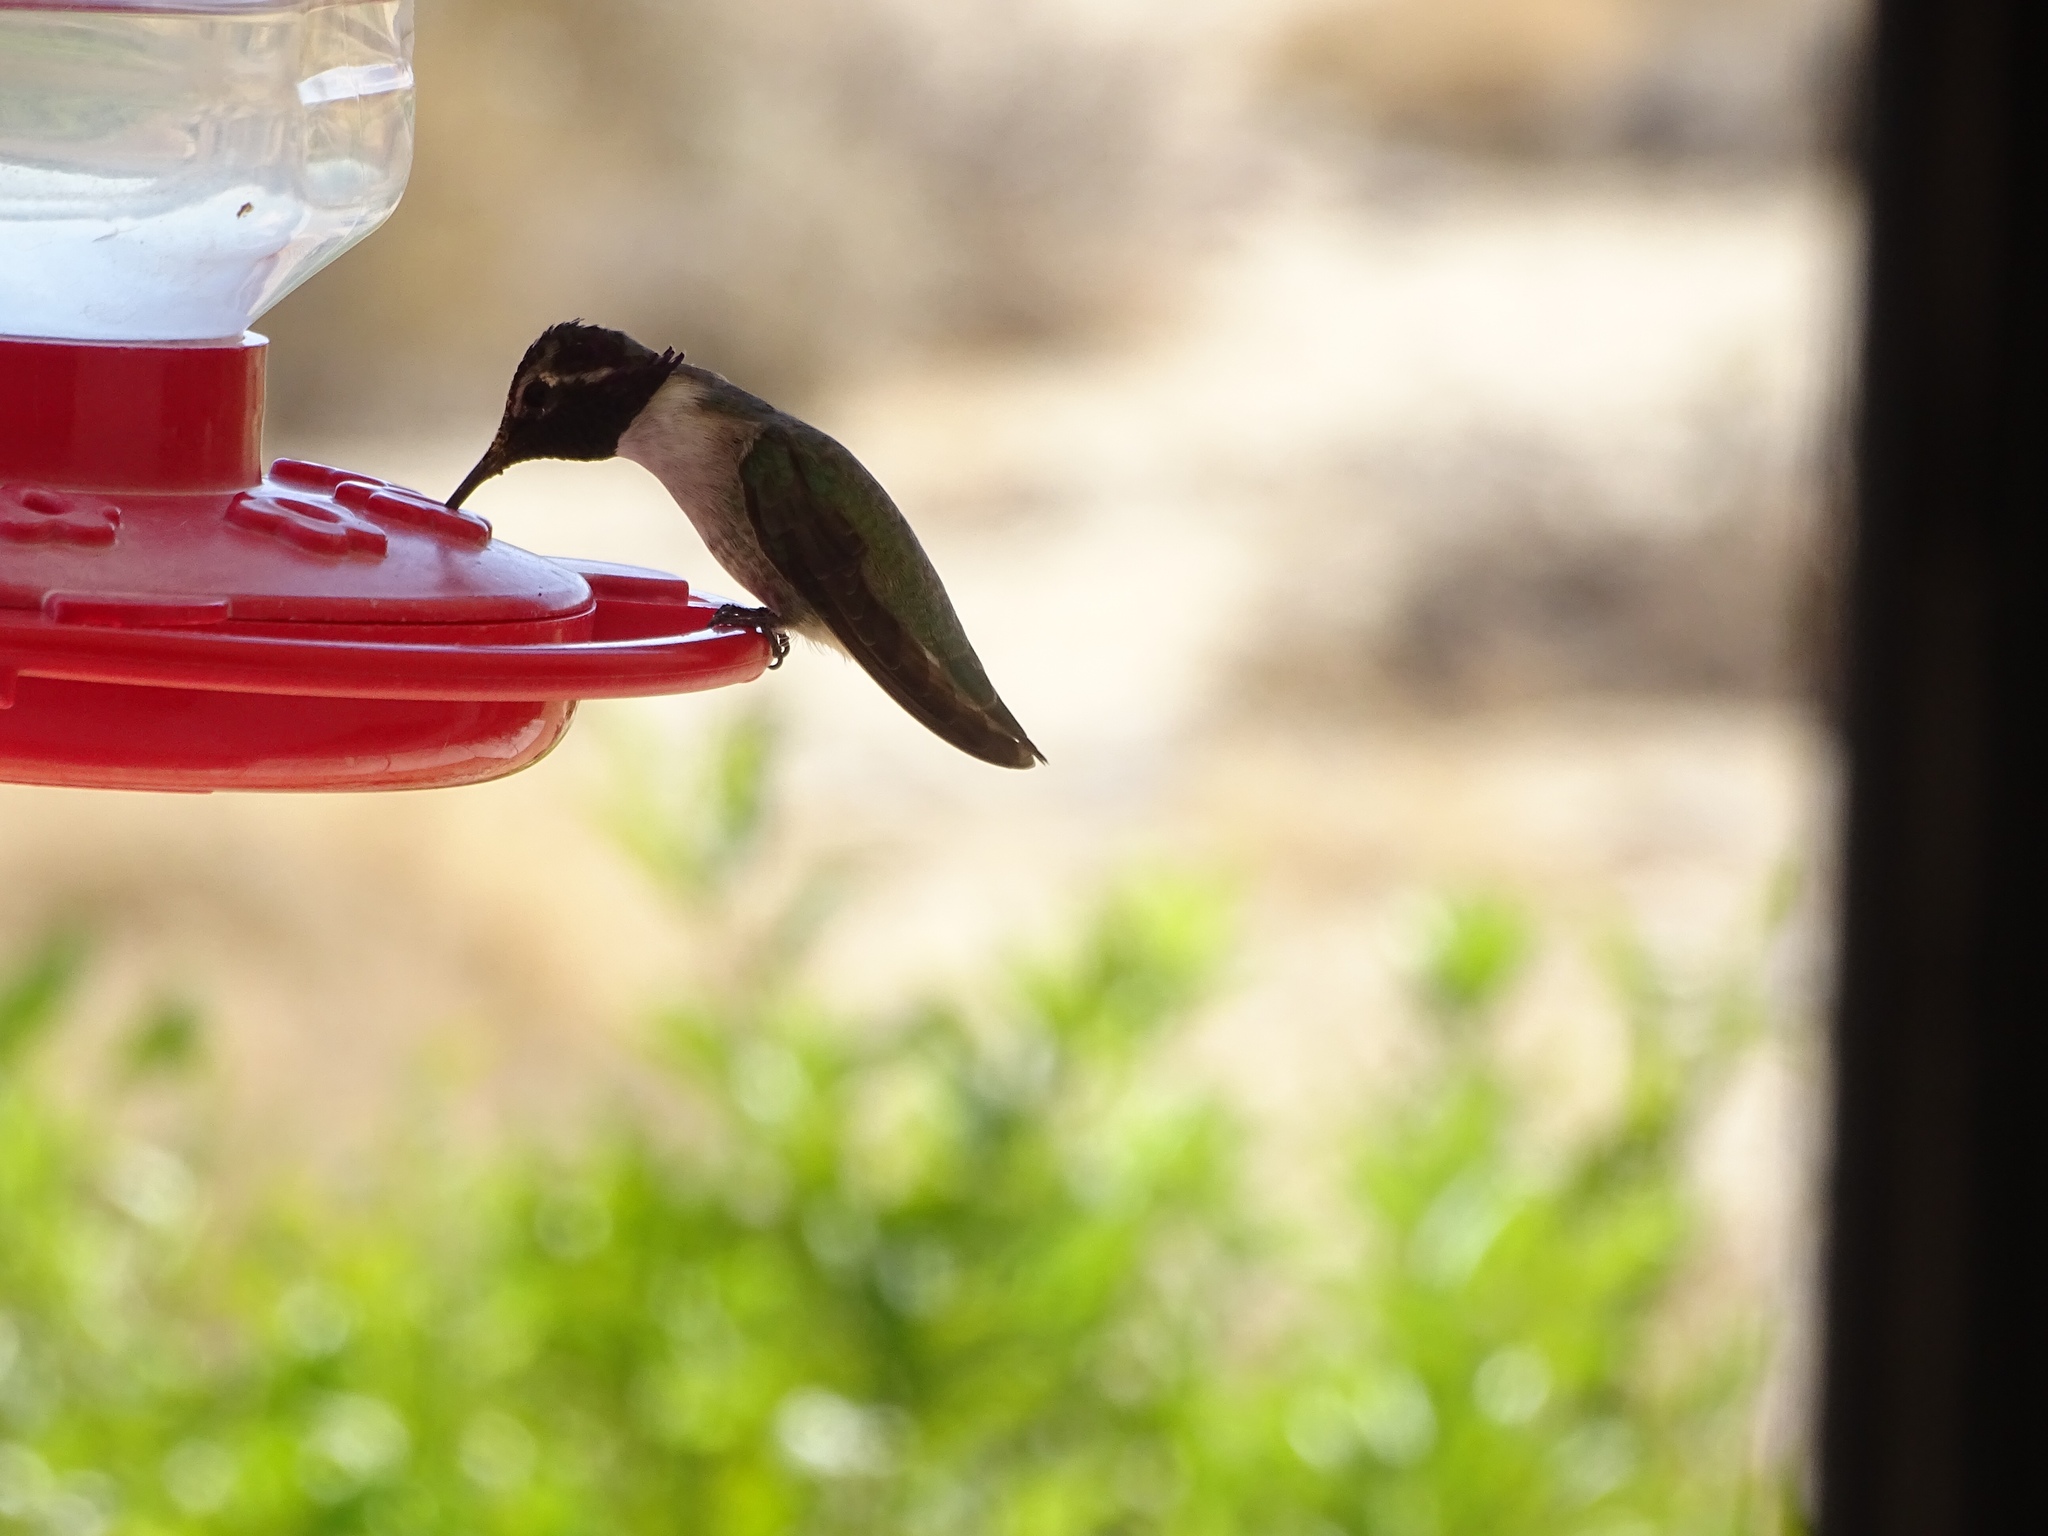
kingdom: Animalia
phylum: Chordata
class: Aves
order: Apodiformes
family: Trochilidae
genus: Calypte
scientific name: Calypte costae
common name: Costa's hummingbird
